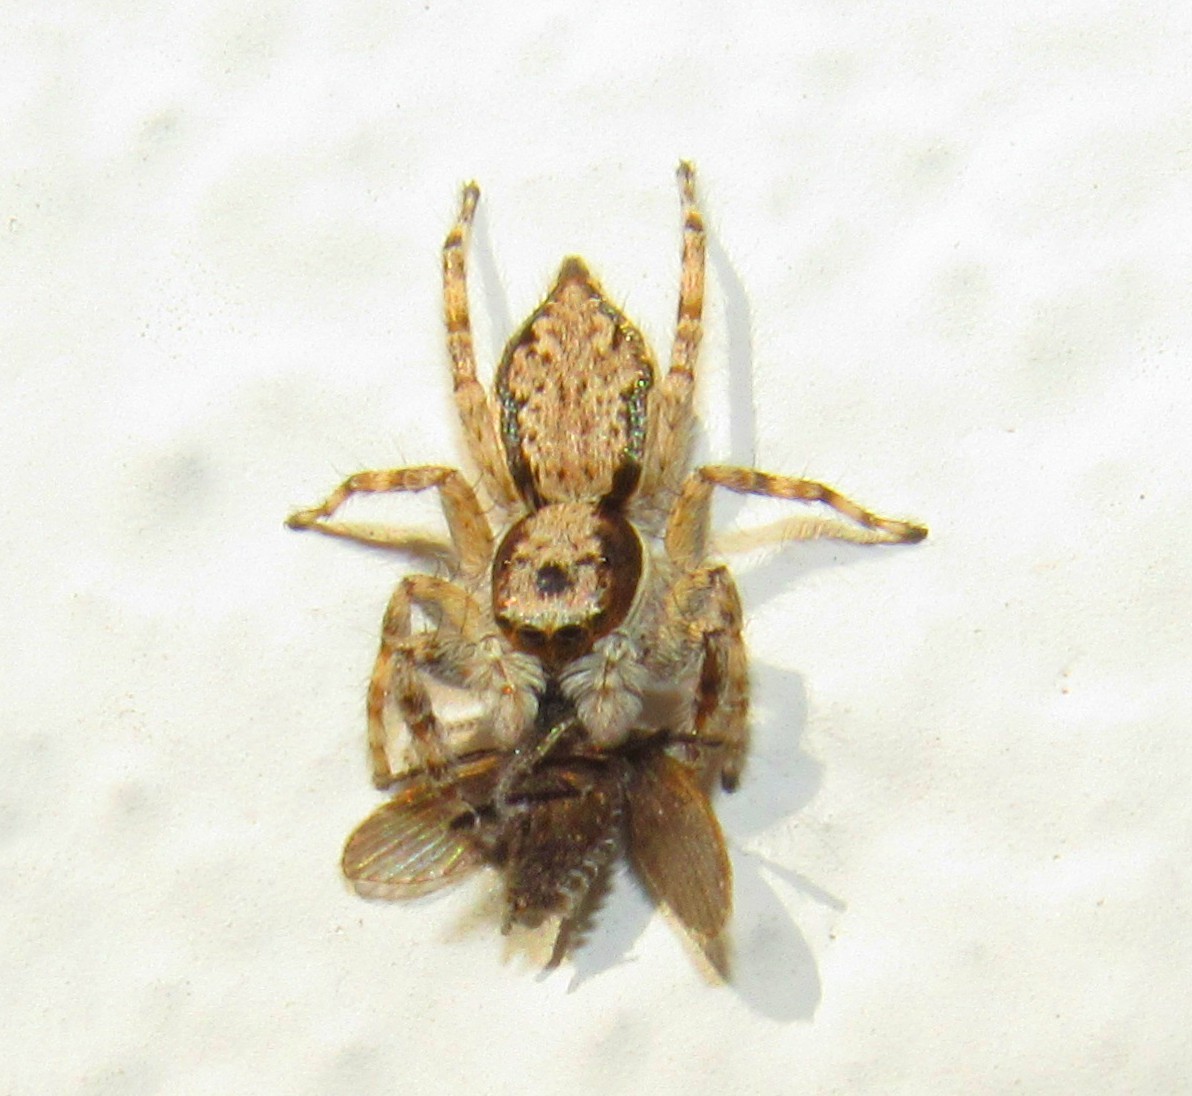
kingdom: Animalia
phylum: Arthropoda
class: Arachnida
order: Araneae
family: Salticidae
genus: Menemerus
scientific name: Menemerus bivittatus
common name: Gray wall jumper
